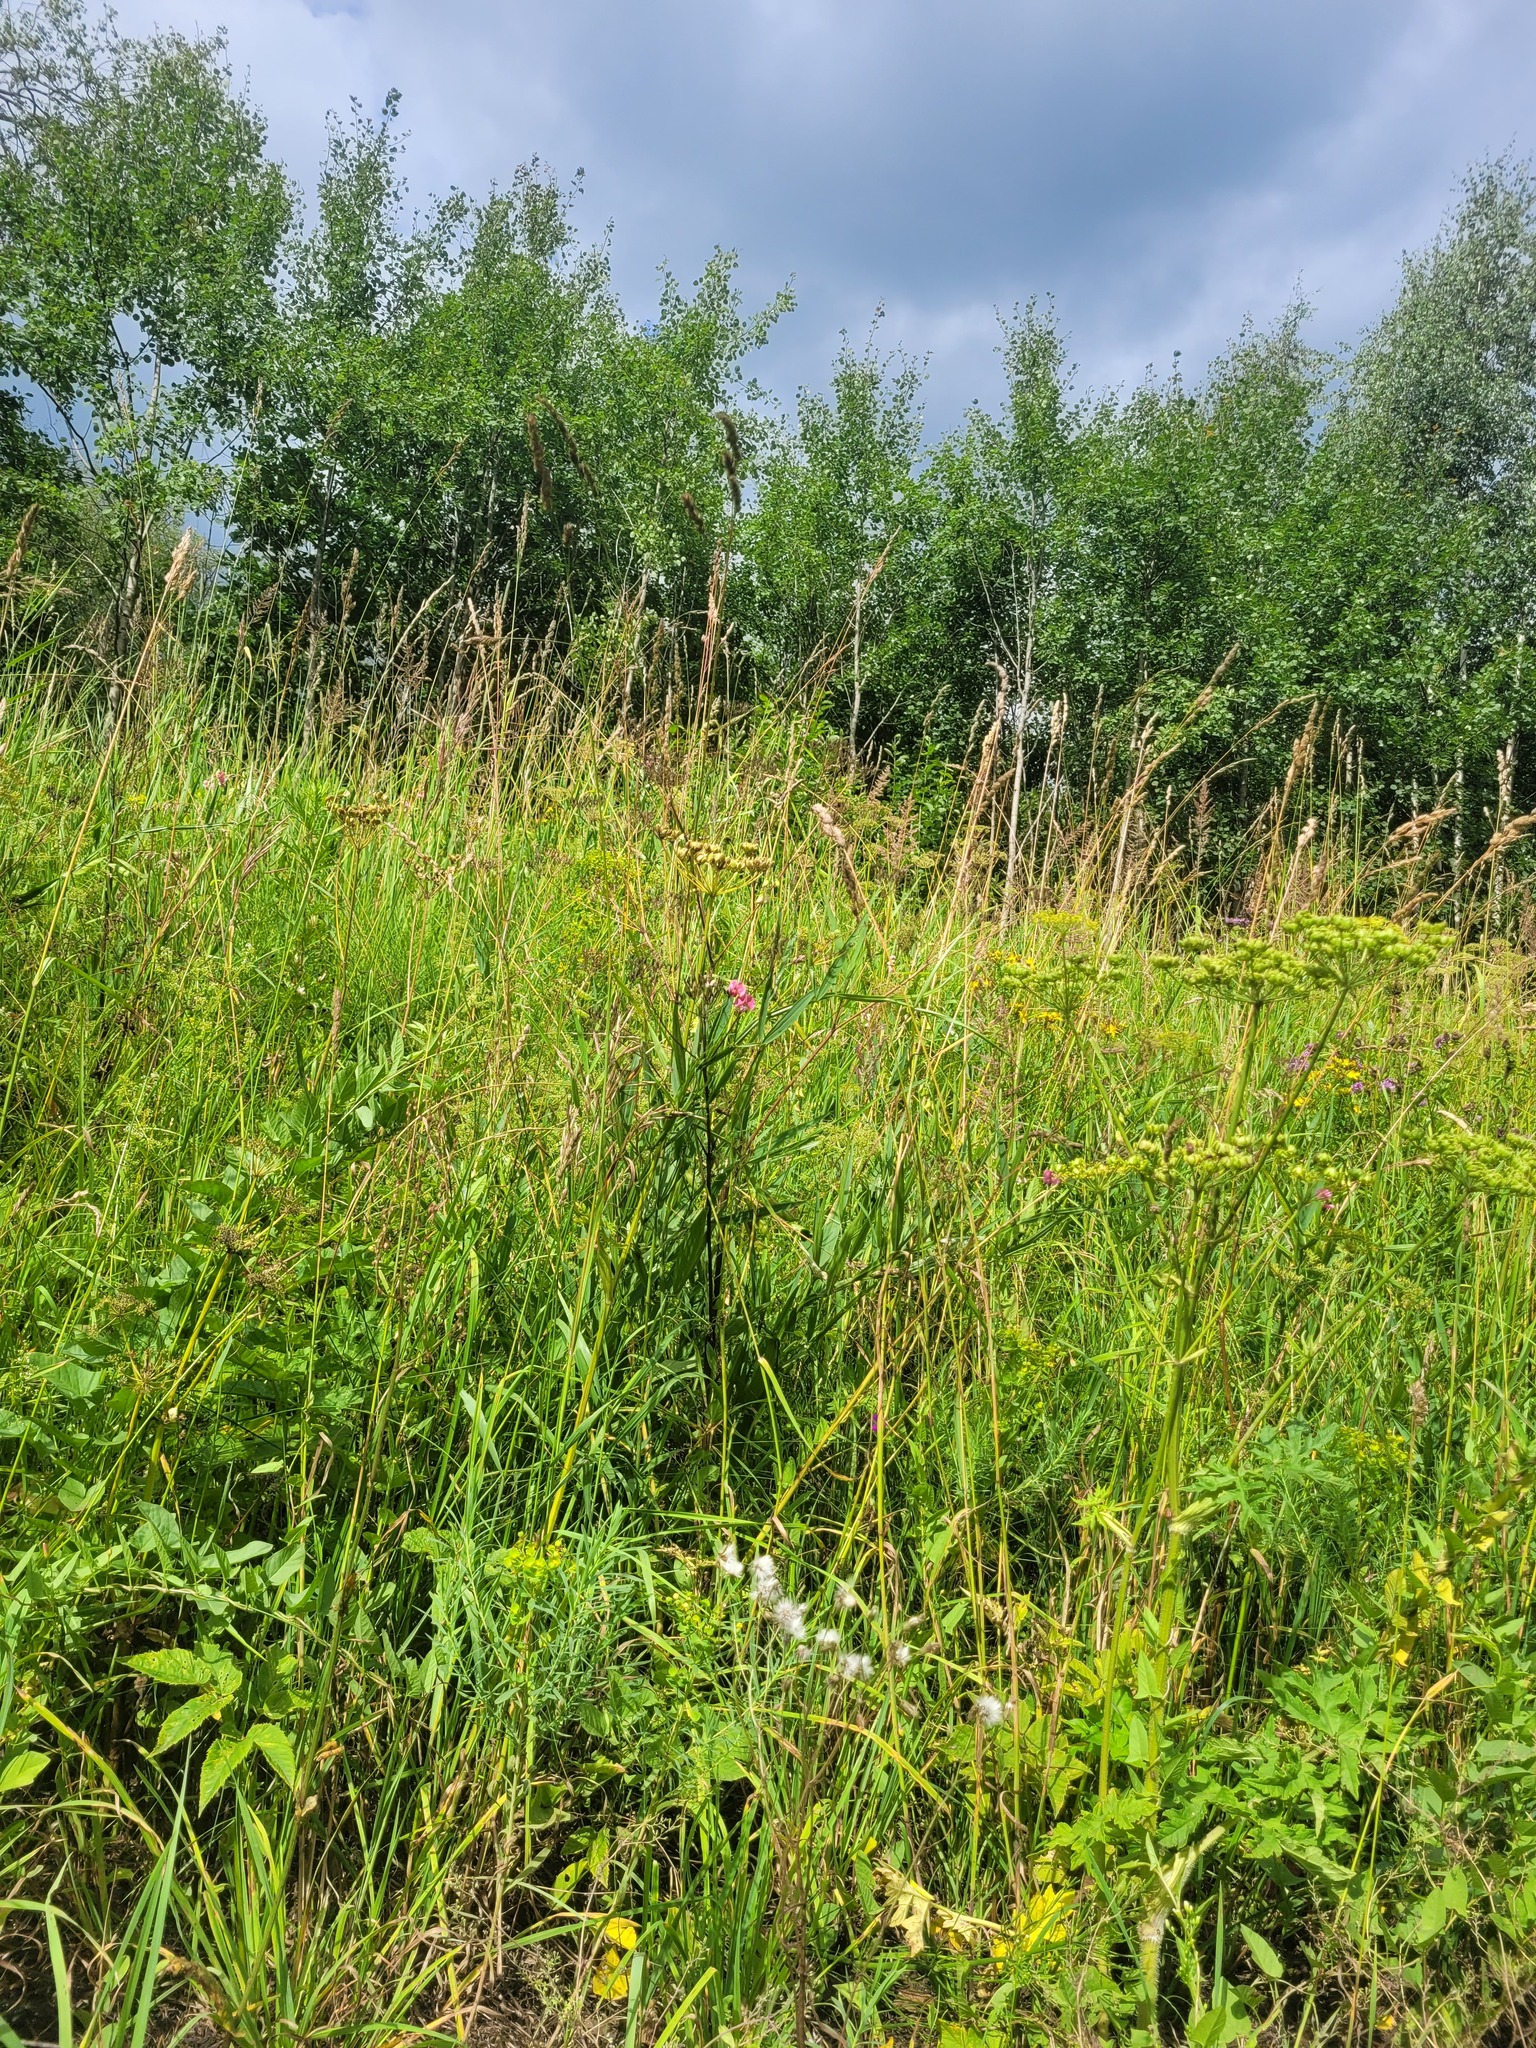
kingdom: Plantae
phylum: Tracheophyta
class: Magnoliopsida
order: Fabales
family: Fabaceae
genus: Lathyrus
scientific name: Lathyrus sylvestris
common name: Flat pea
